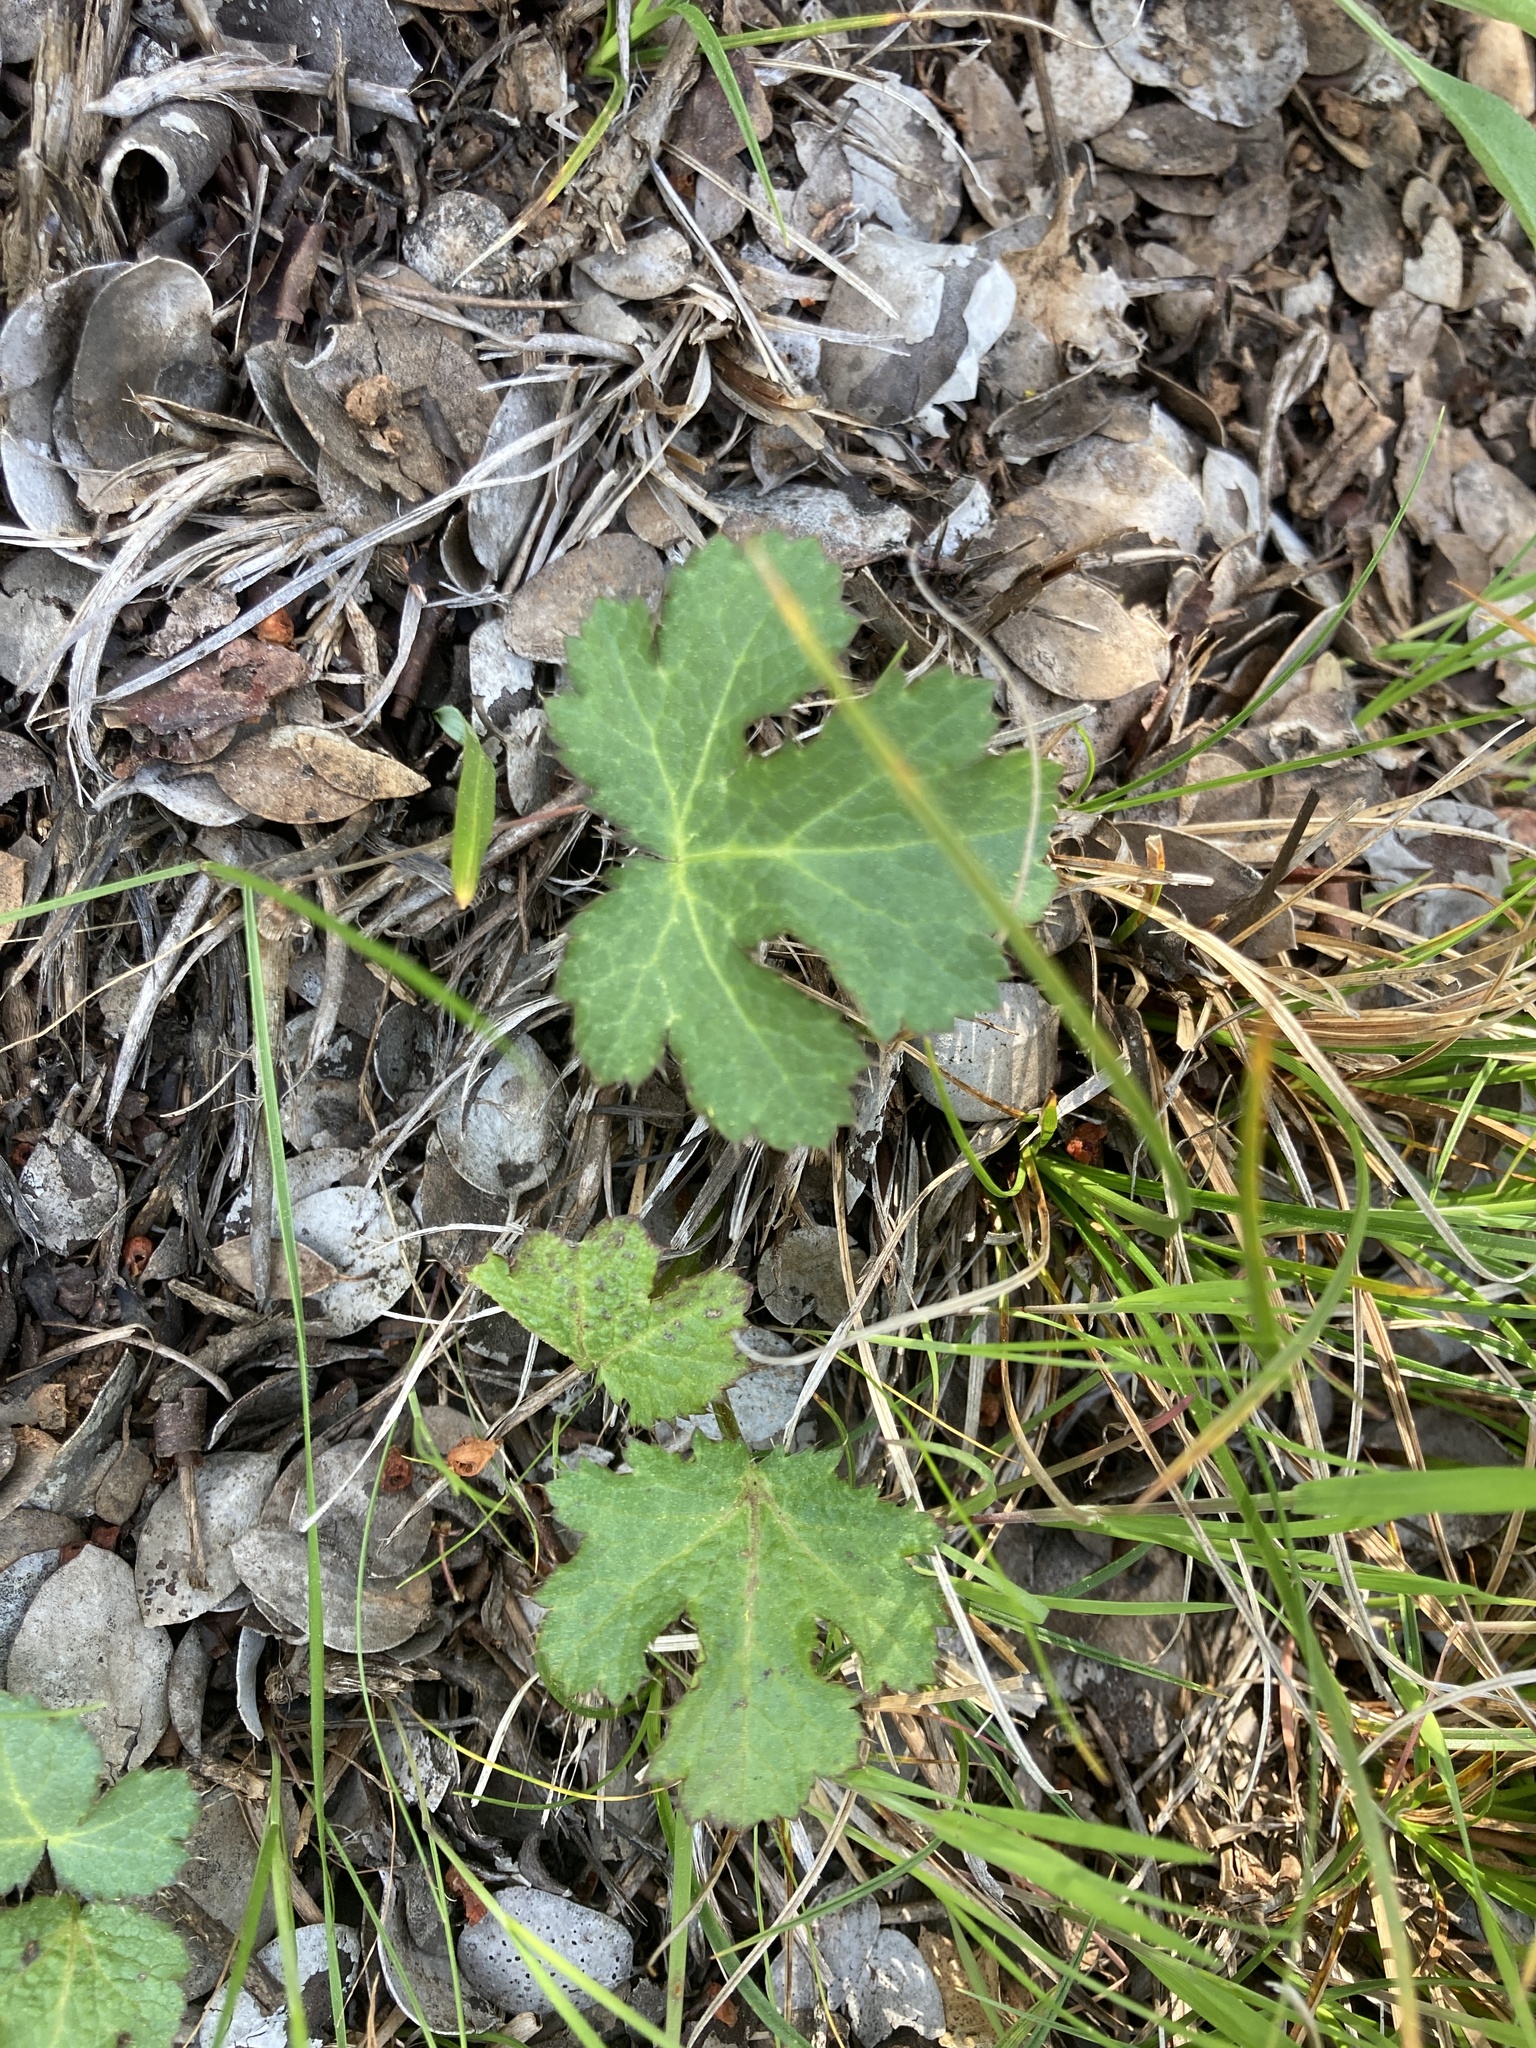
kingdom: Plantae
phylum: Tracheophyta
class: Magnoliopsida
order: Apiales
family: Apiaceae
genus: Sanicula
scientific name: Sanicula crassicaulis
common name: Western snakeroot
